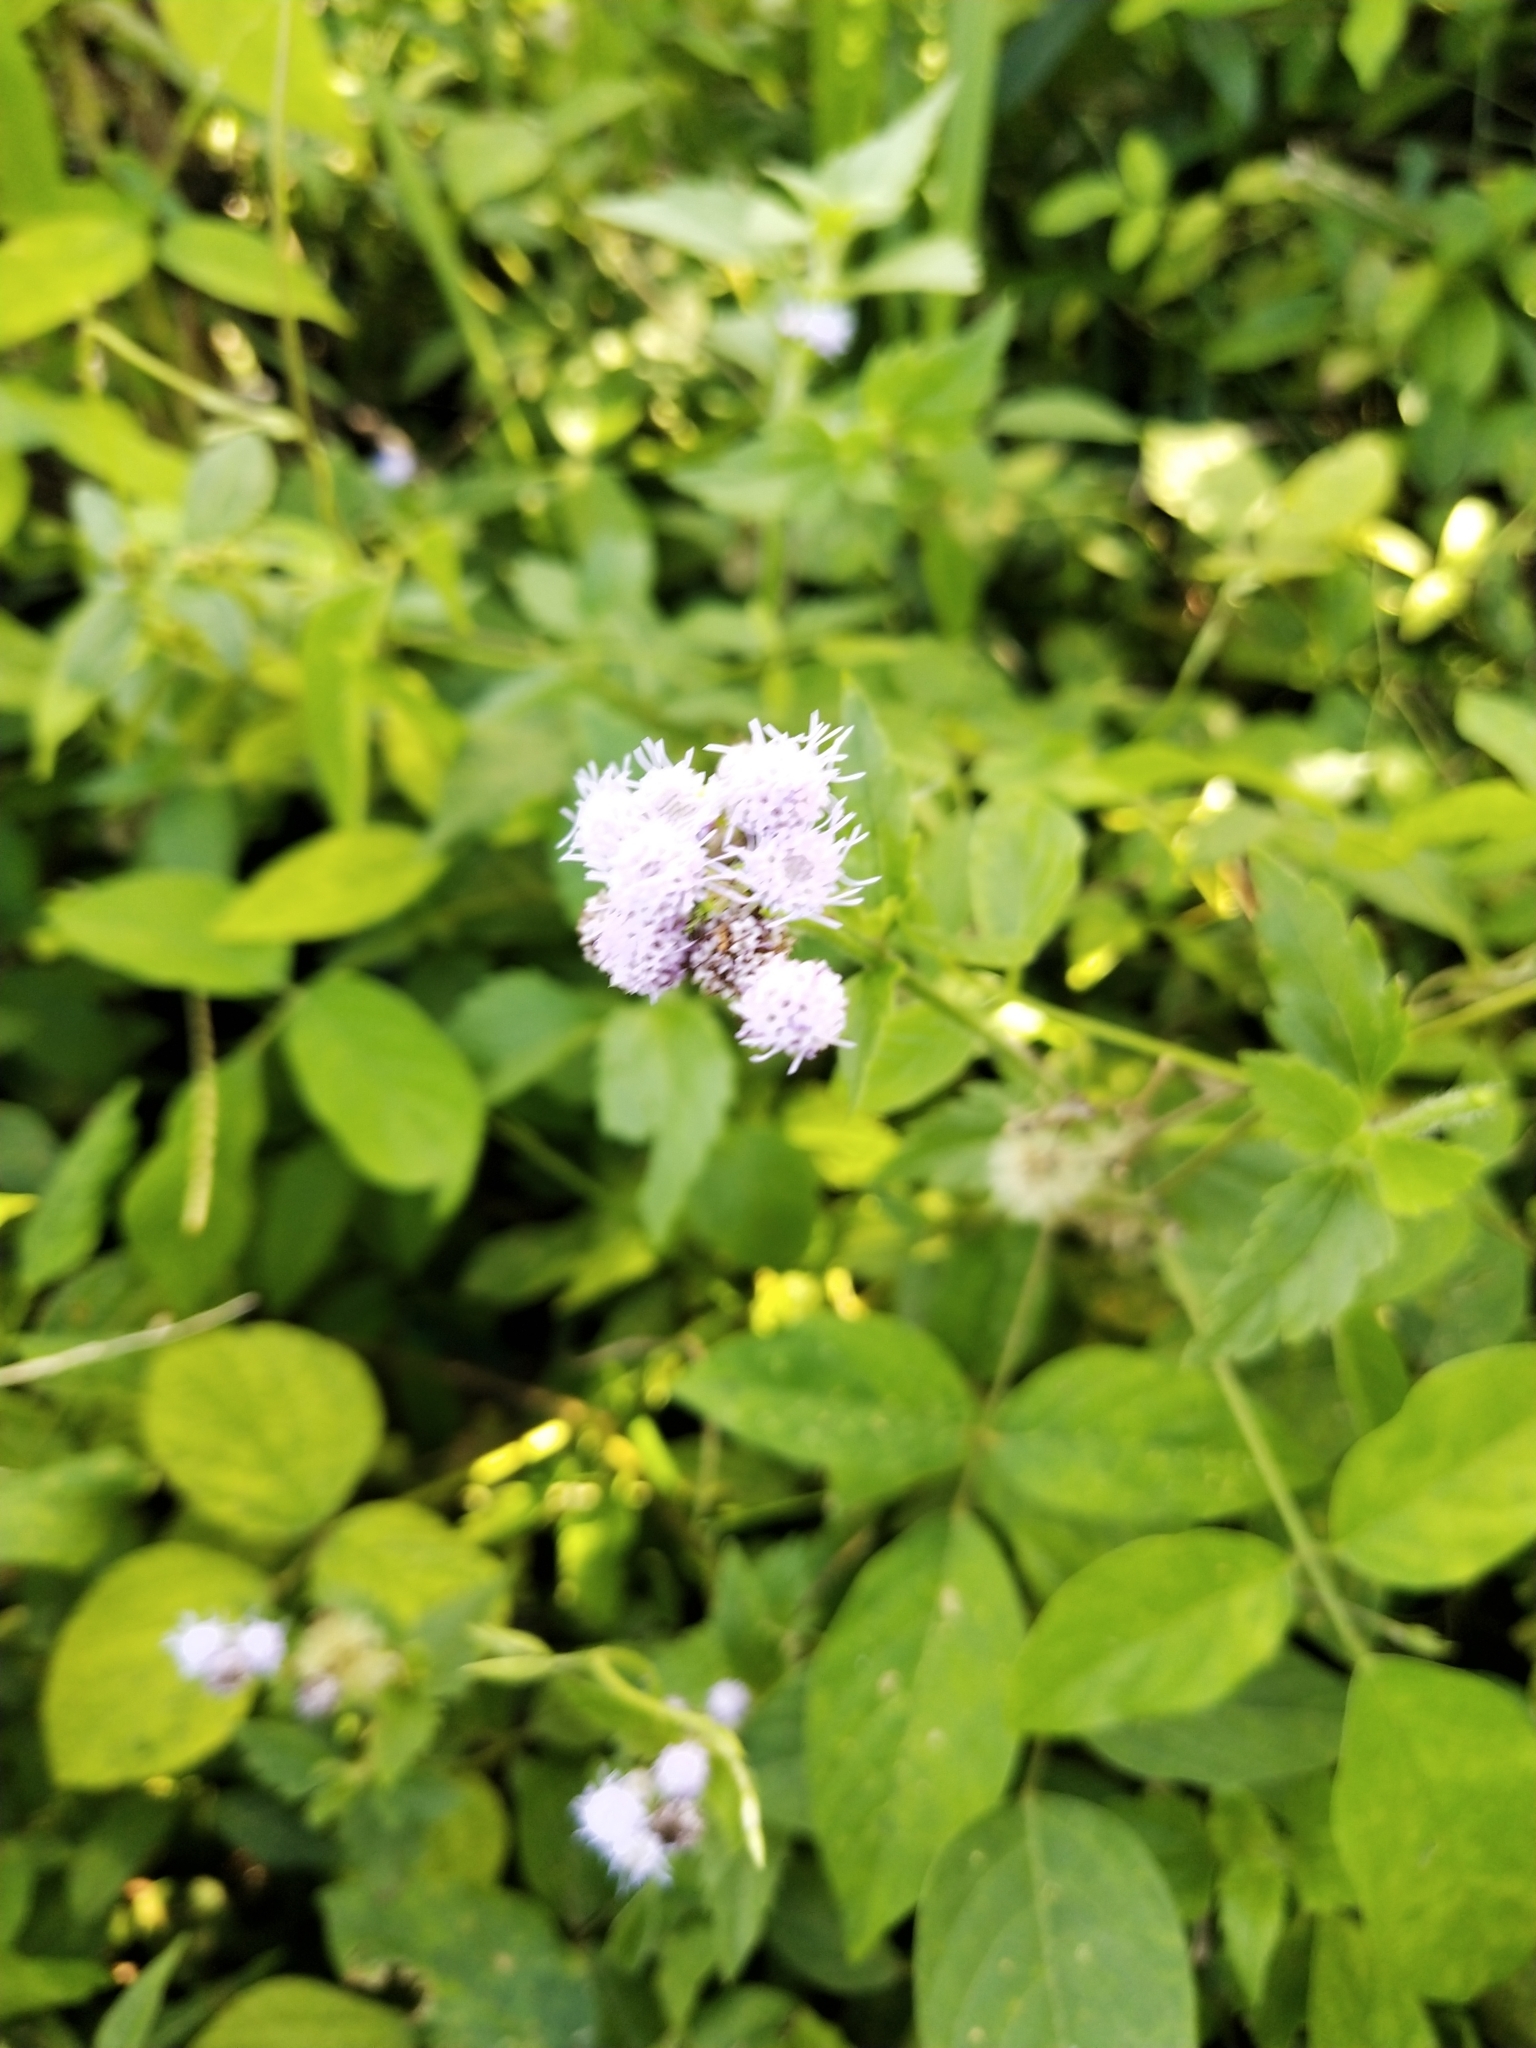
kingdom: Plantae
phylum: Tracheophyta
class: Magnoliopsida
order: Asterales
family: Asteraceae
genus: Praxelis
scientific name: Praxelis clematidea
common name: Praxelis
